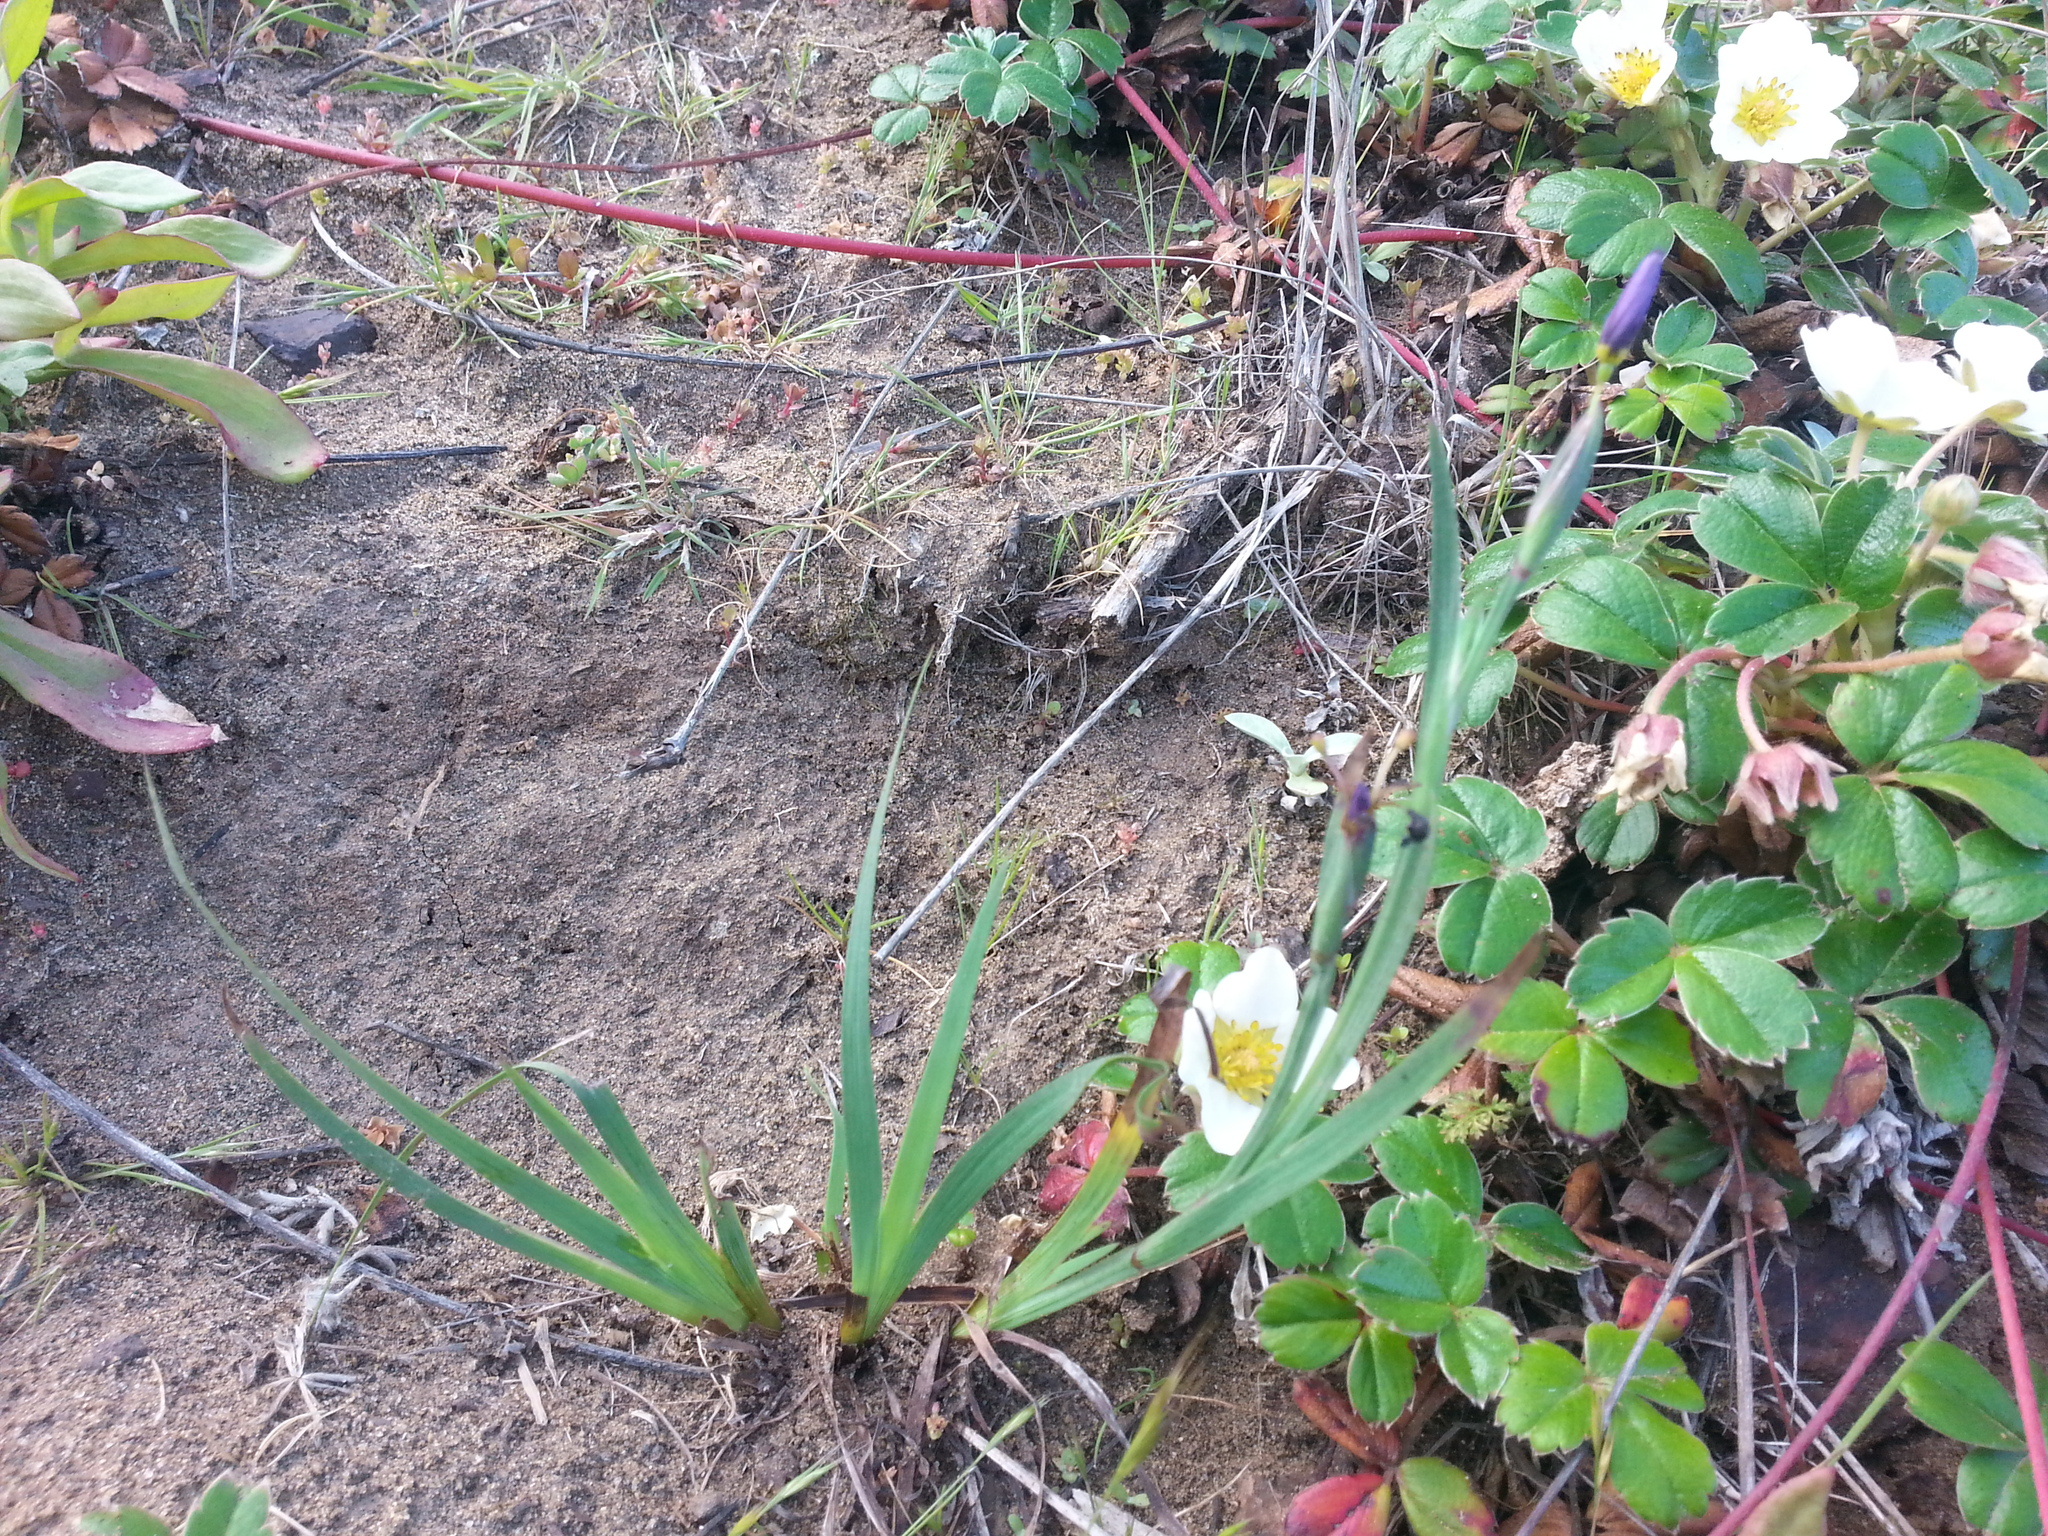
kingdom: Plantae
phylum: Tracheophyta
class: Liliopsida
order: Asparagales
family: Iridaceae
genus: Sisyrinchium
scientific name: Sisyrinchium bellum
